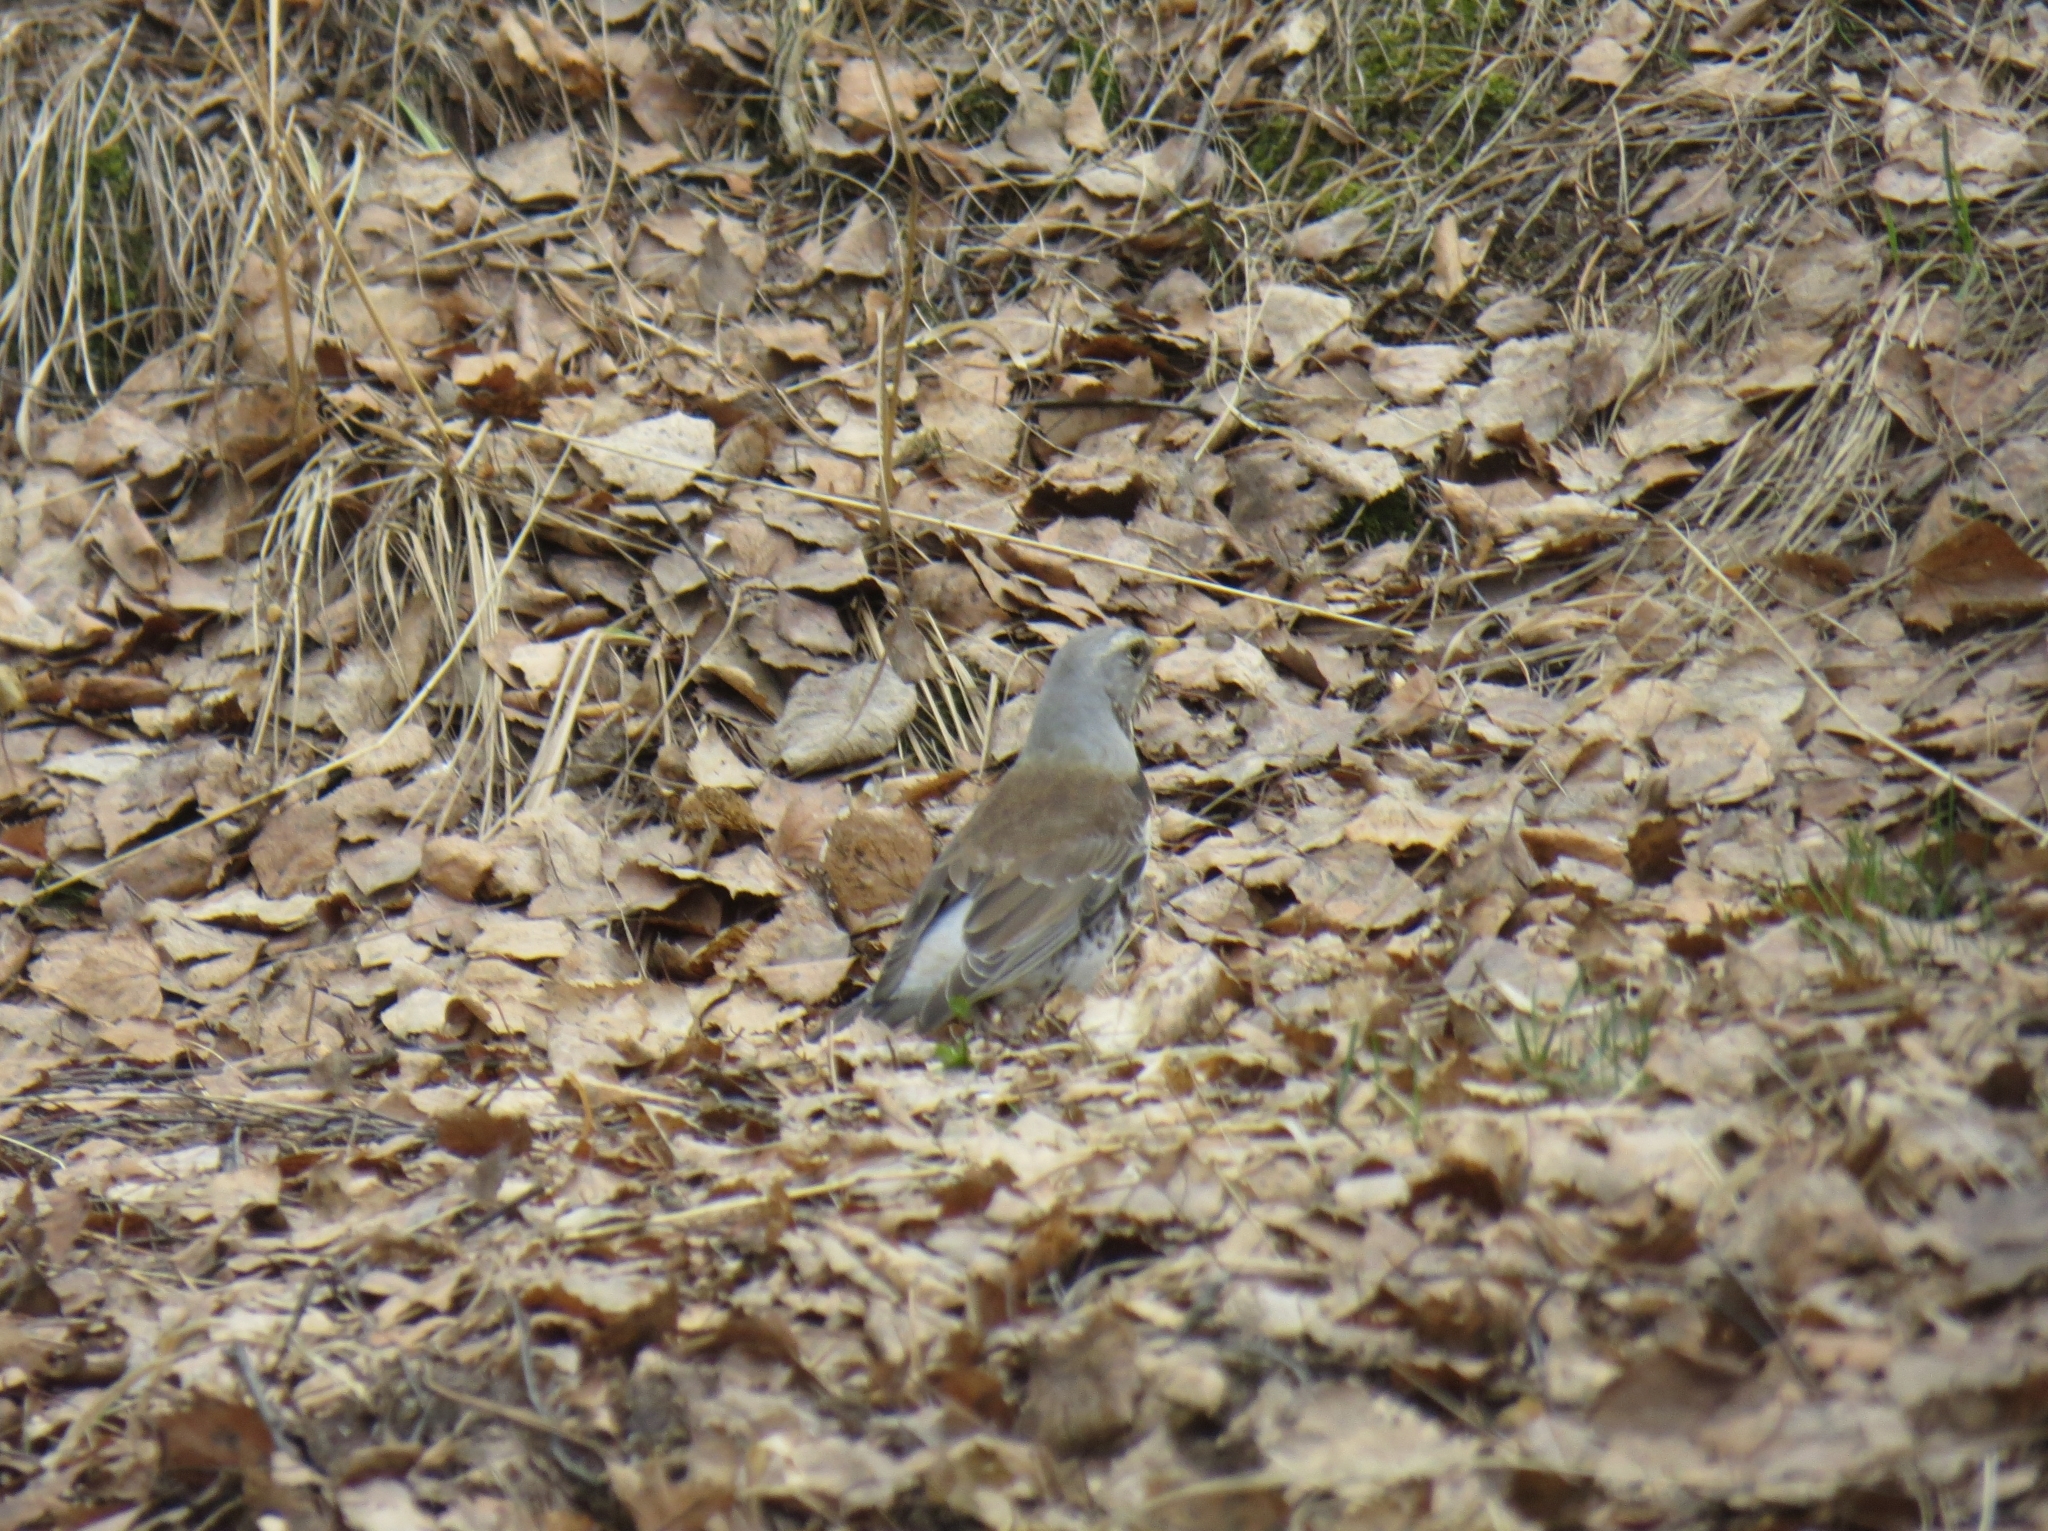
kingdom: Animalia
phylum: Chordata
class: Aves
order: Passeriformes
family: Turdidae
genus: Turdus
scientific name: Turdus pilaris
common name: Fieldfare
